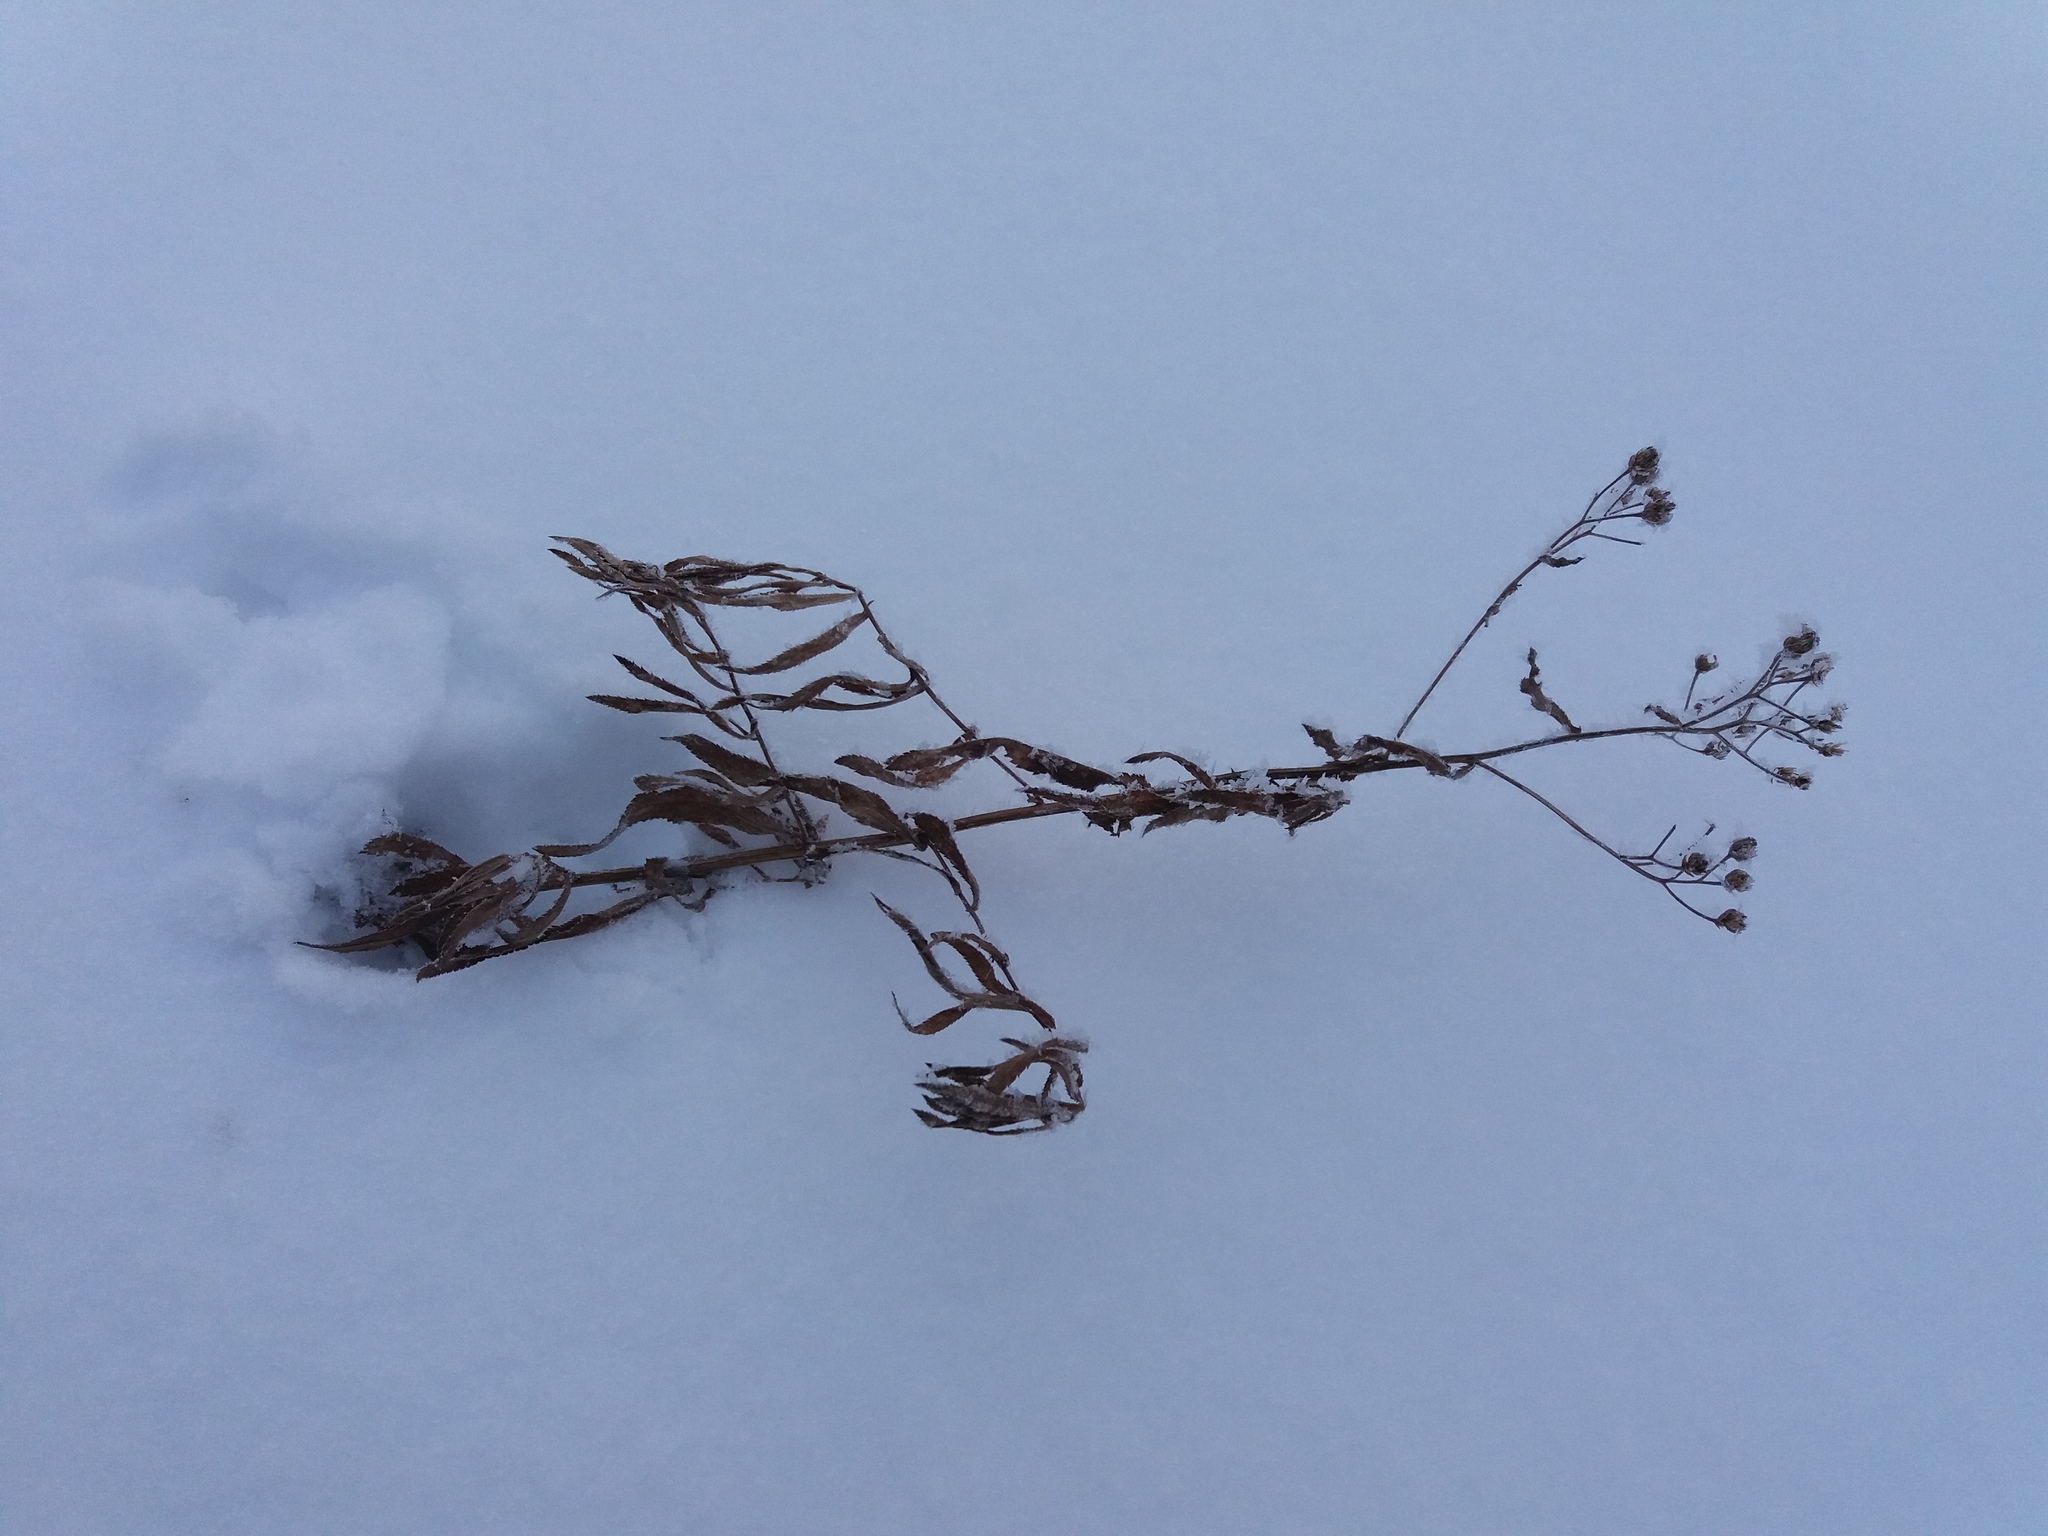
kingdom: Plantae
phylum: Tracheophyta
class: Magnoliopsida
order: Asterales
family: Asteraceae
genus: Achillea
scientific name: Achillea salicifolia
